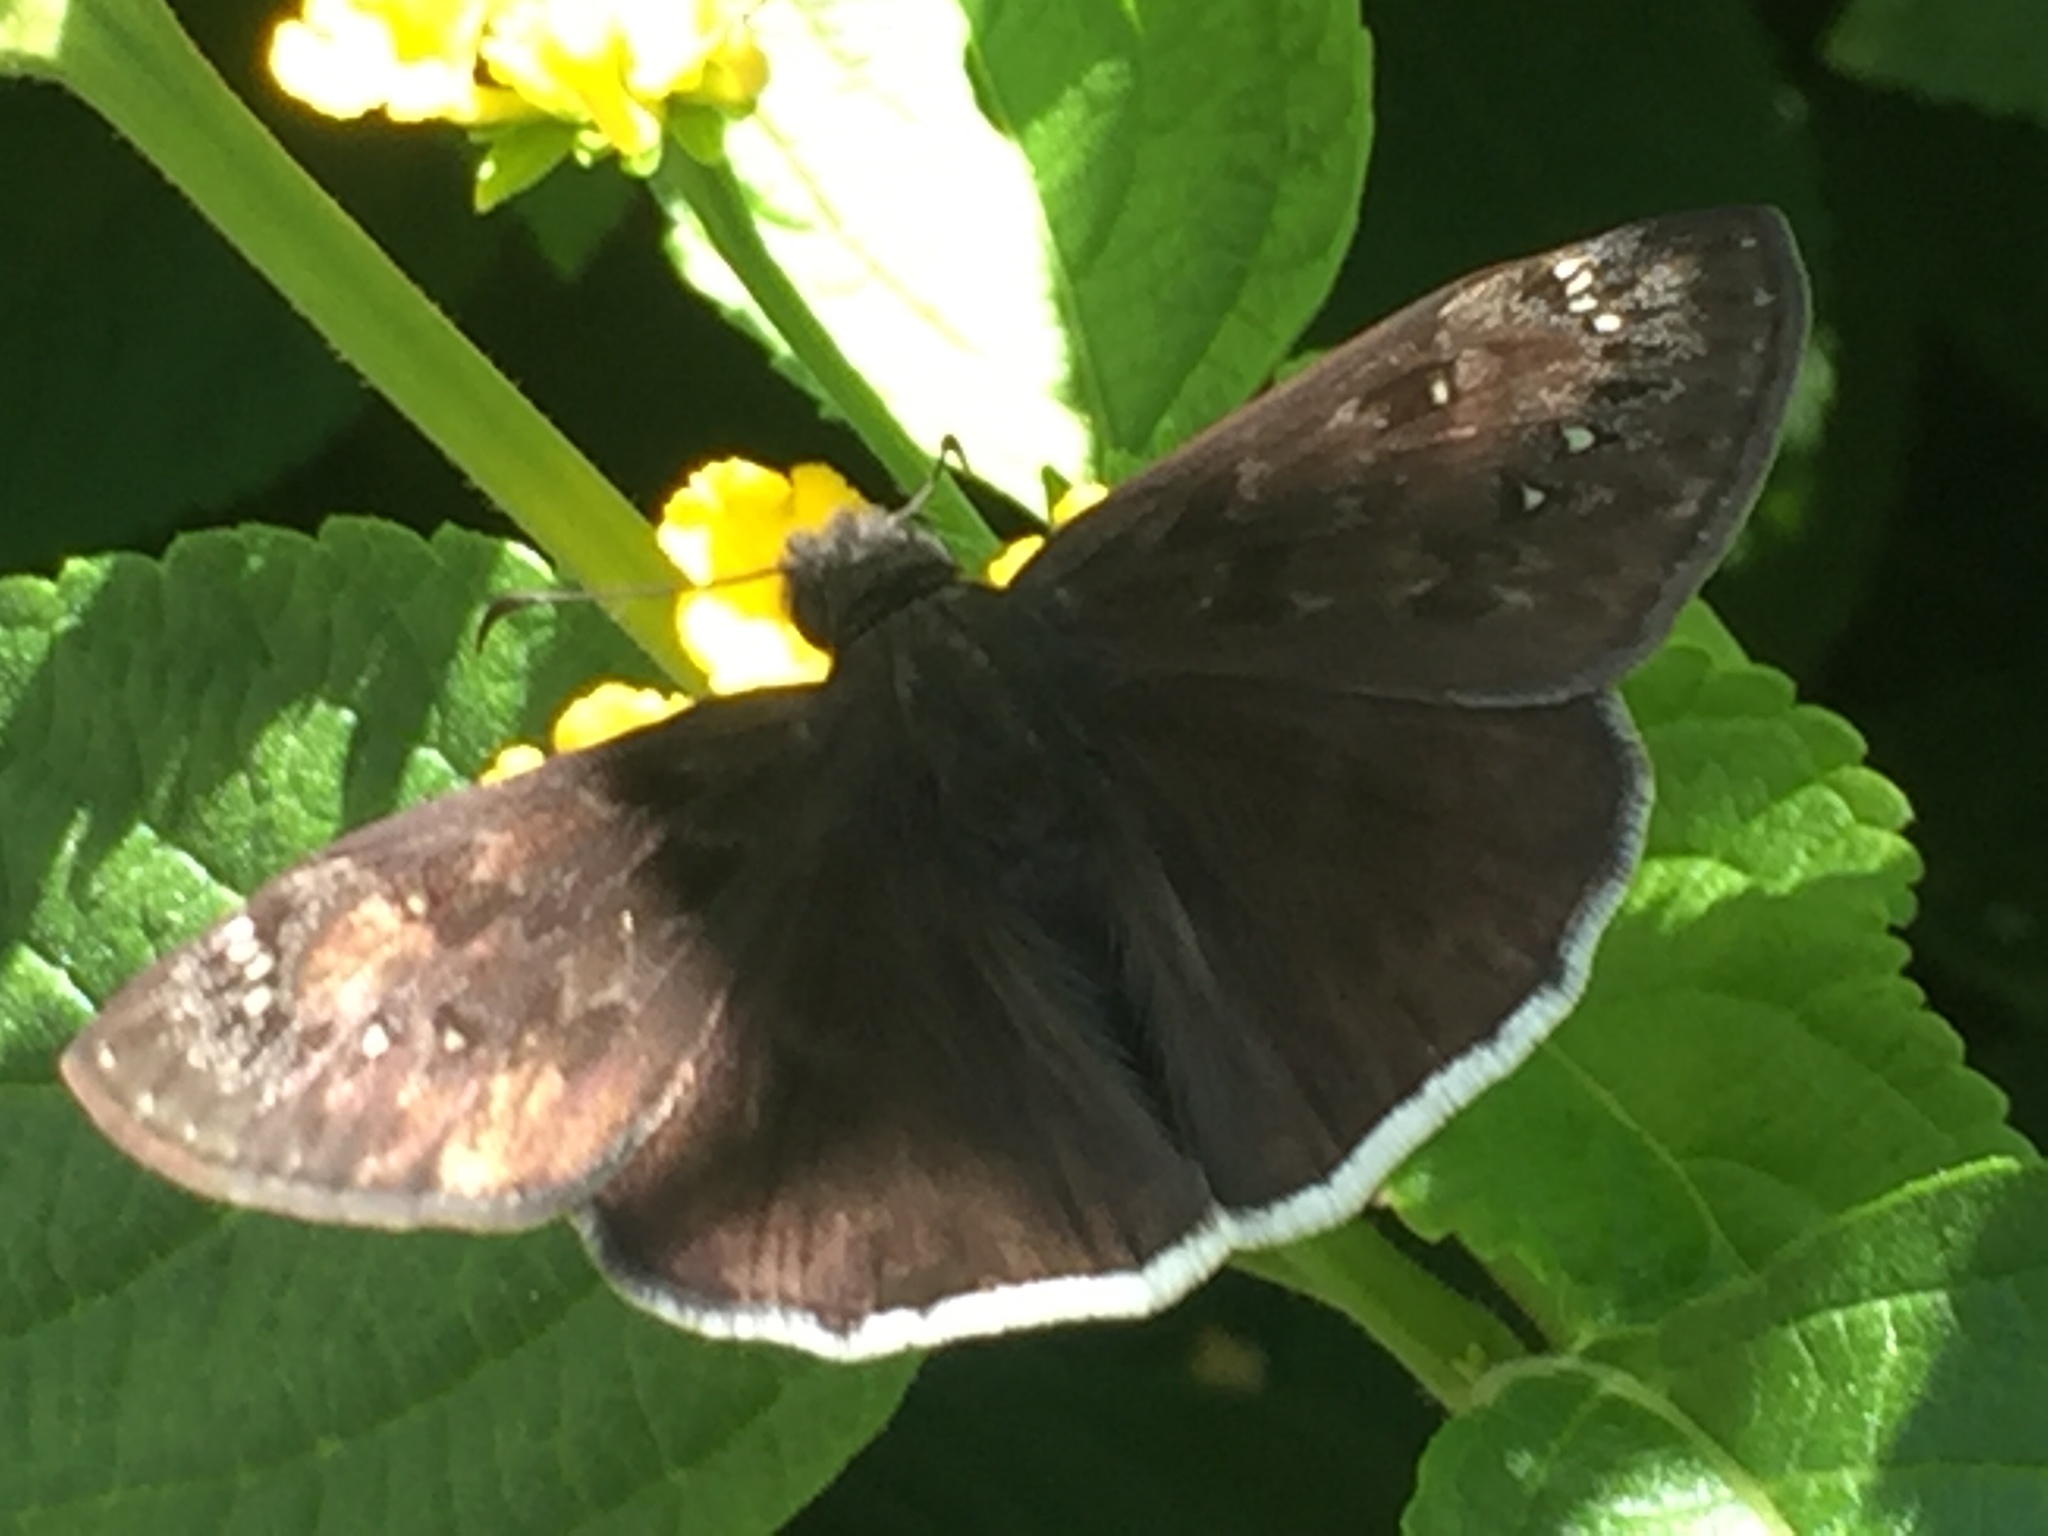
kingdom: Animalia
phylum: Arthropoda
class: Insecta
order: Lepidoptera
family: Hesperiidae
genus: Erynnis
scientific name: Erynnis tristis
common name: Mournful duskywing
